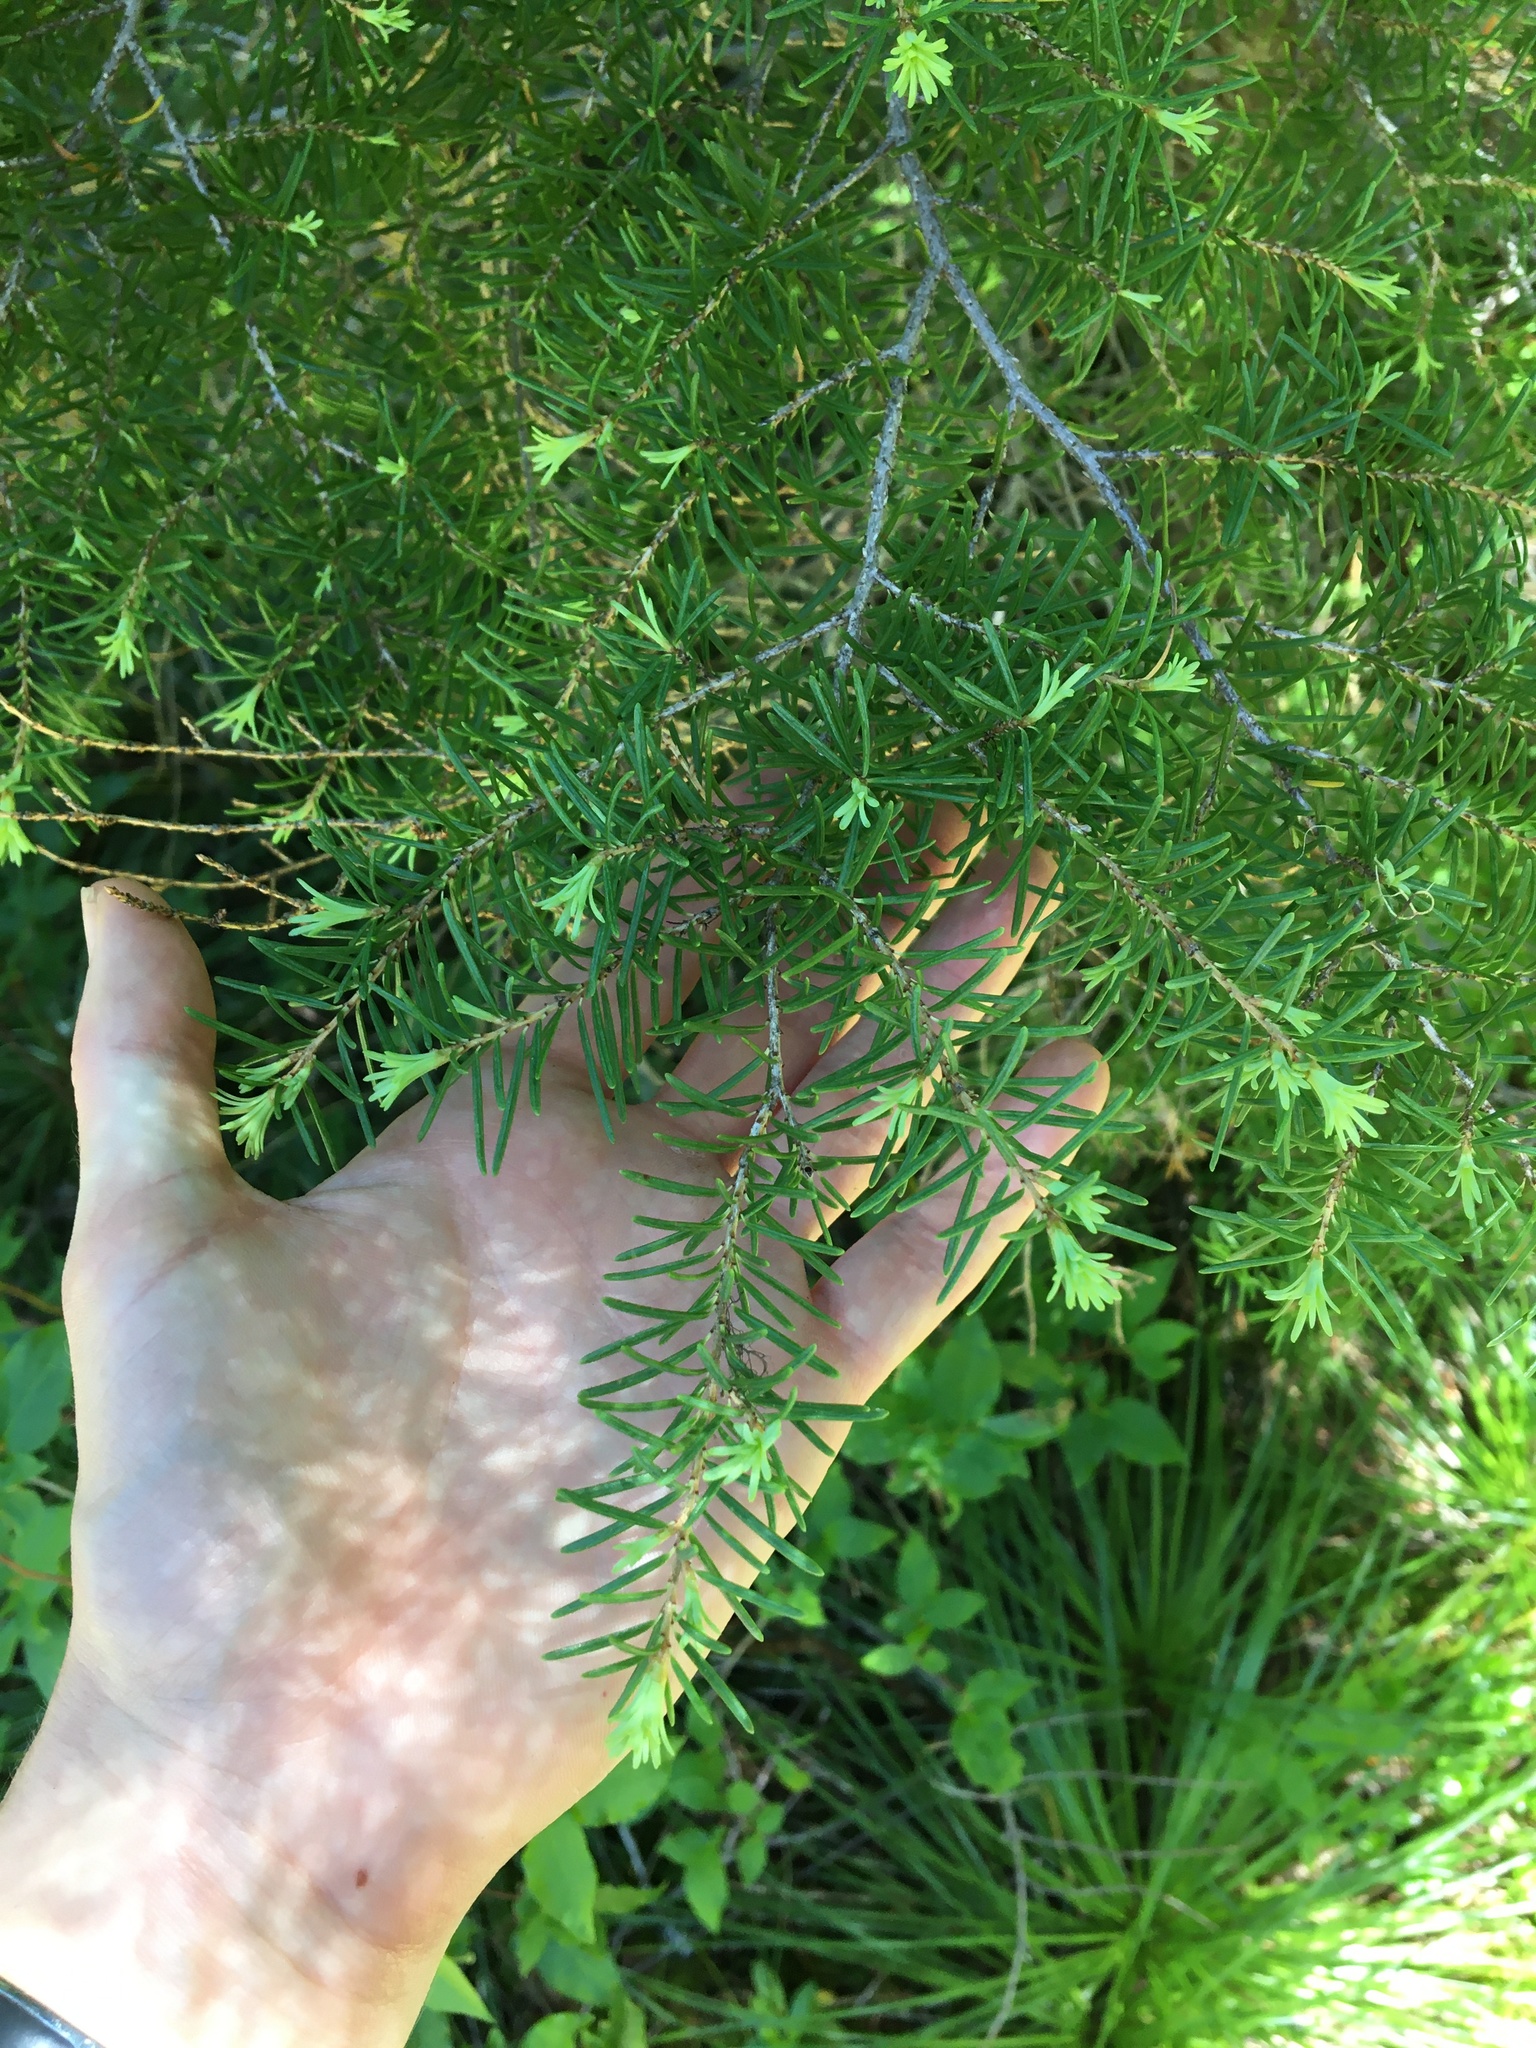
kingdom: Plantae
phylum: Tracheophyta
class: Pinopsida
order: Pinales
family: Pinaceae
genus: Tsuga
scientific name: Tsuga mertensiana
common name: Mountain hemlock
